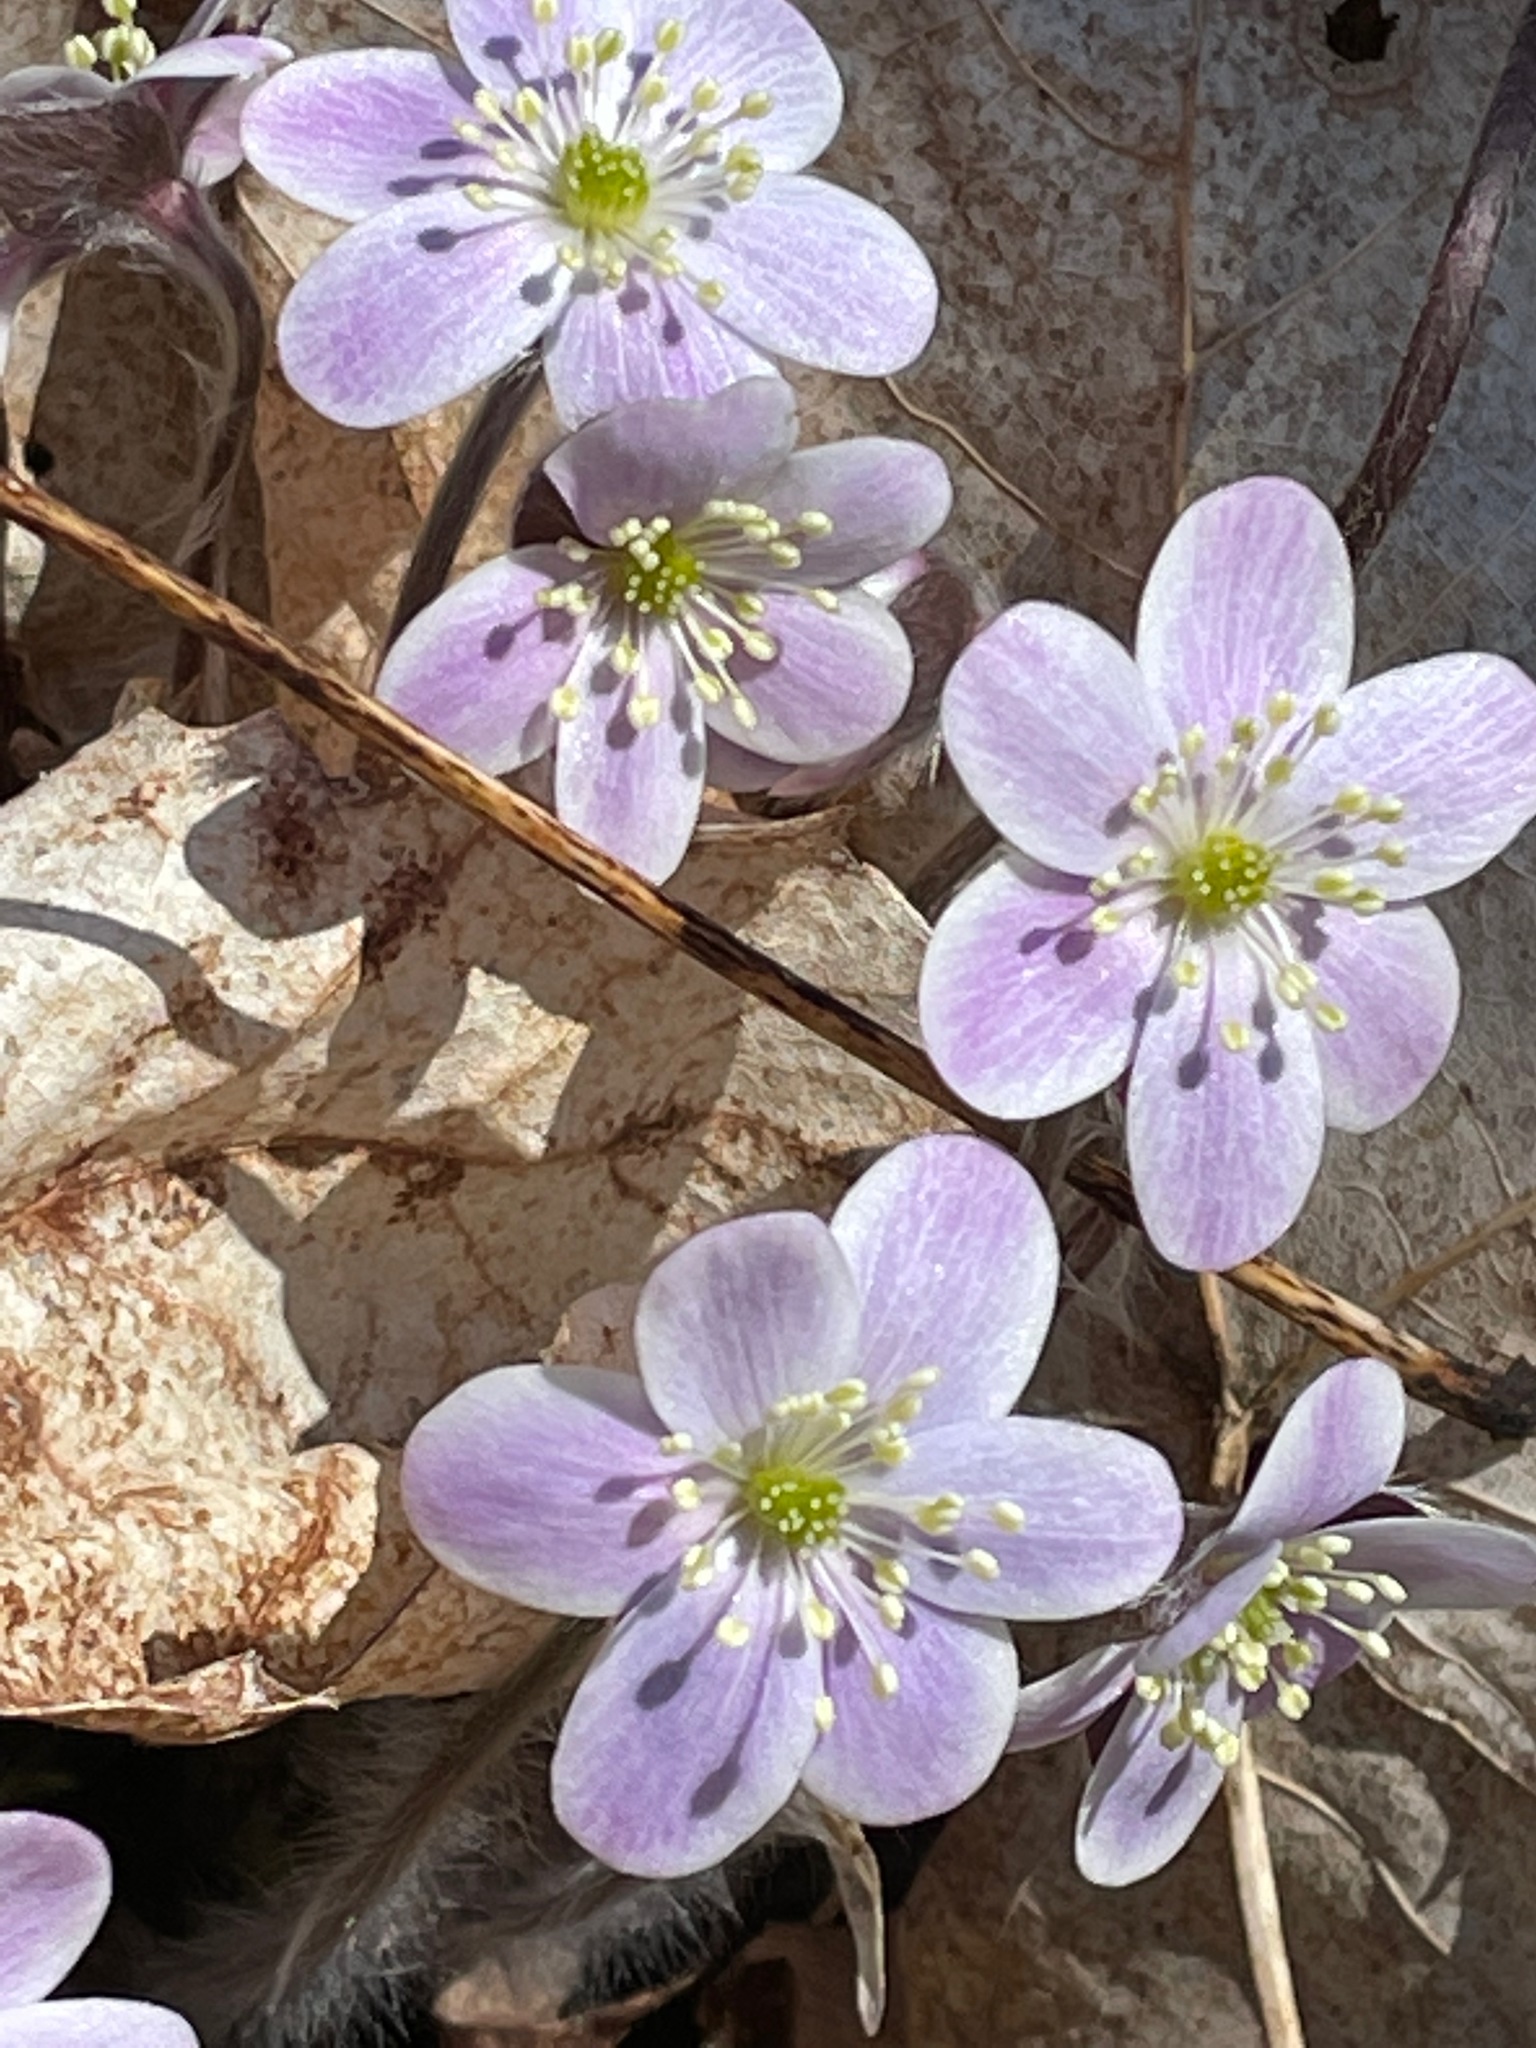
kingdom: Plantae
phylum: Tracheophyta
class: Magnoliopsida
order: Ranunculales
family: Ranunculaceae
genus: Hepatica
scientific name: Hepatica americana
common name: American hepatica
